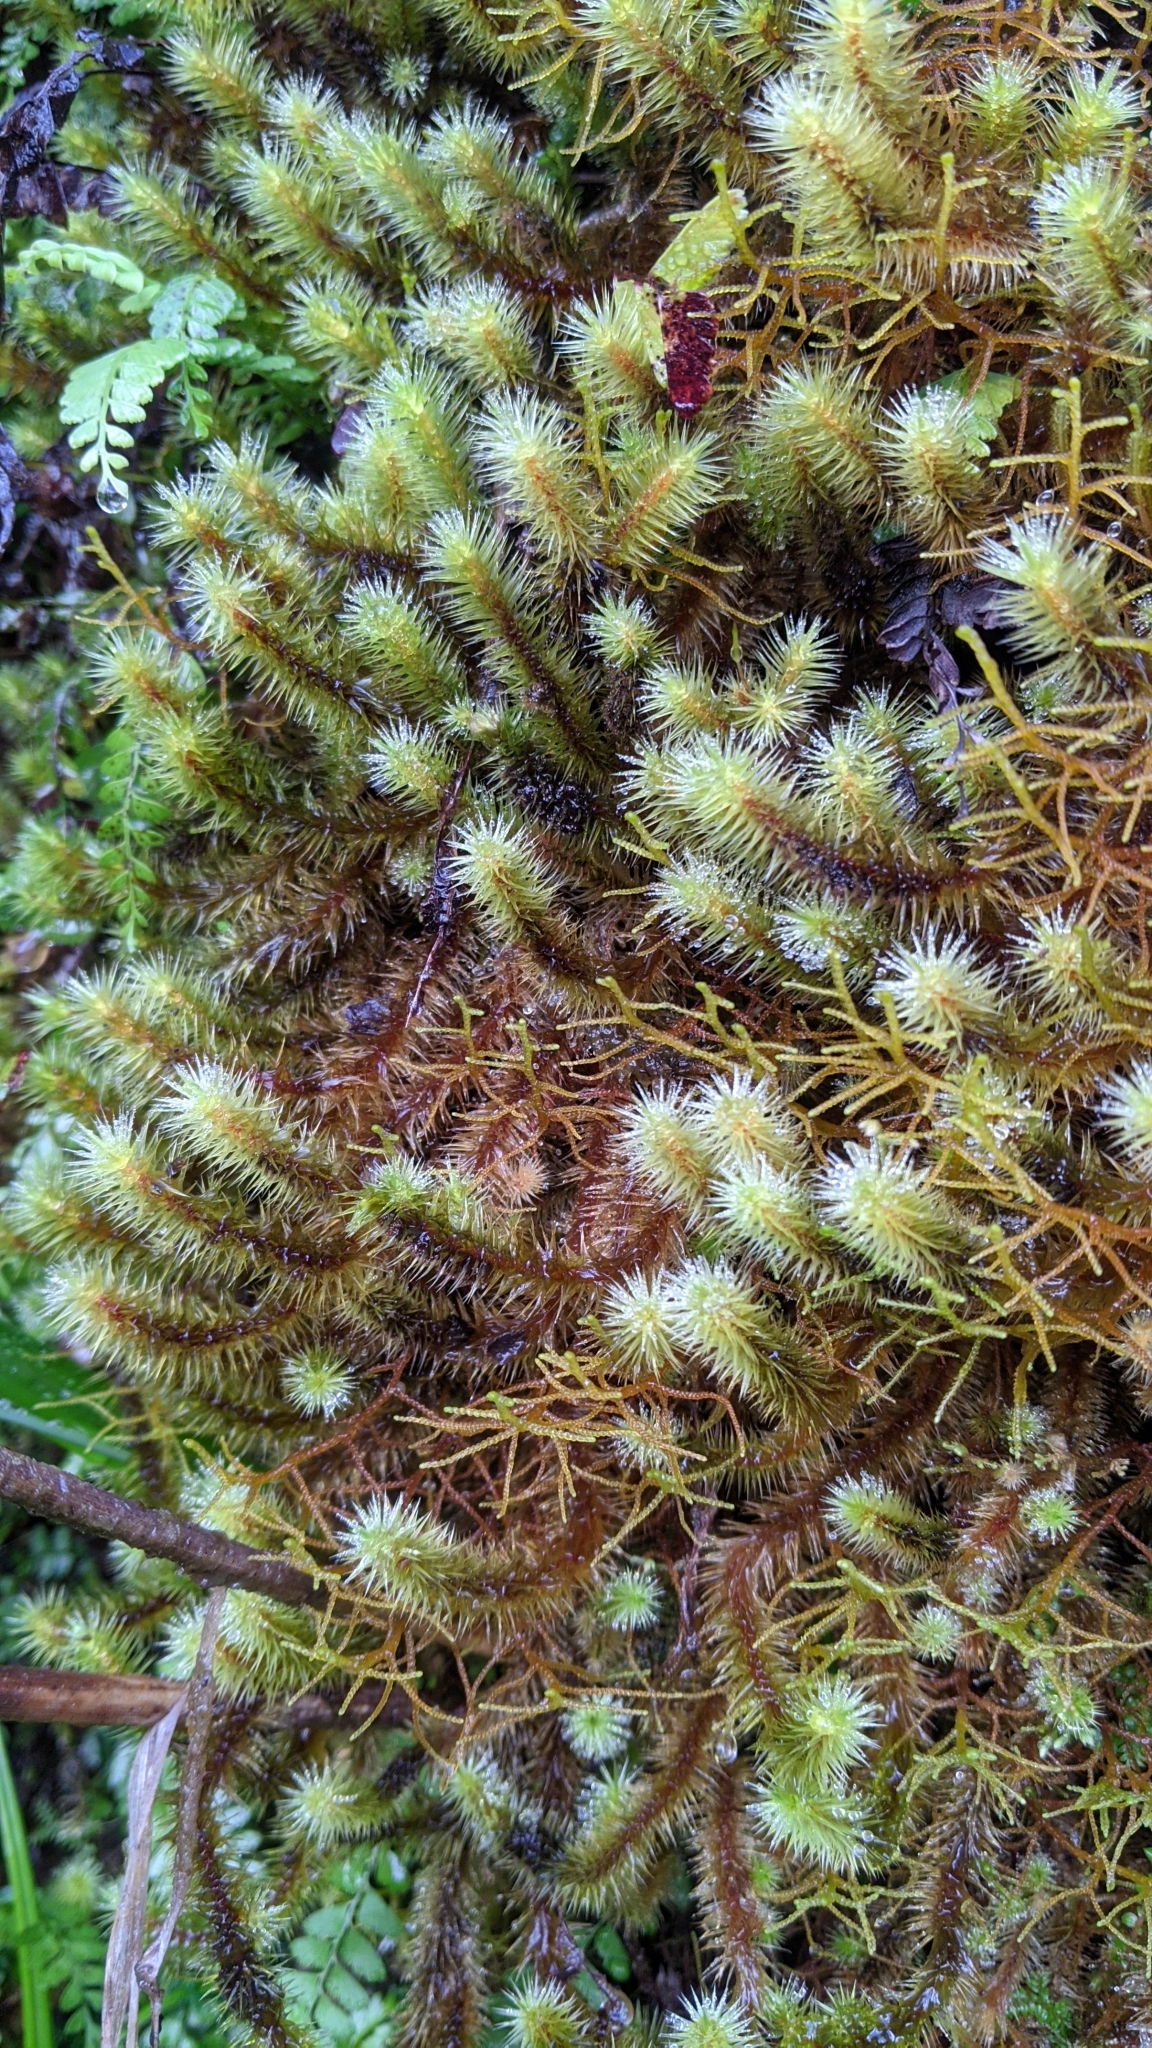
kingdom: Plantae
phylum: Bryophyta
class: Bryopsida
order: Bartramiales
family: Bartramiaceae
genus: Breutelia
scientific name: Breutelia arundinifolia
